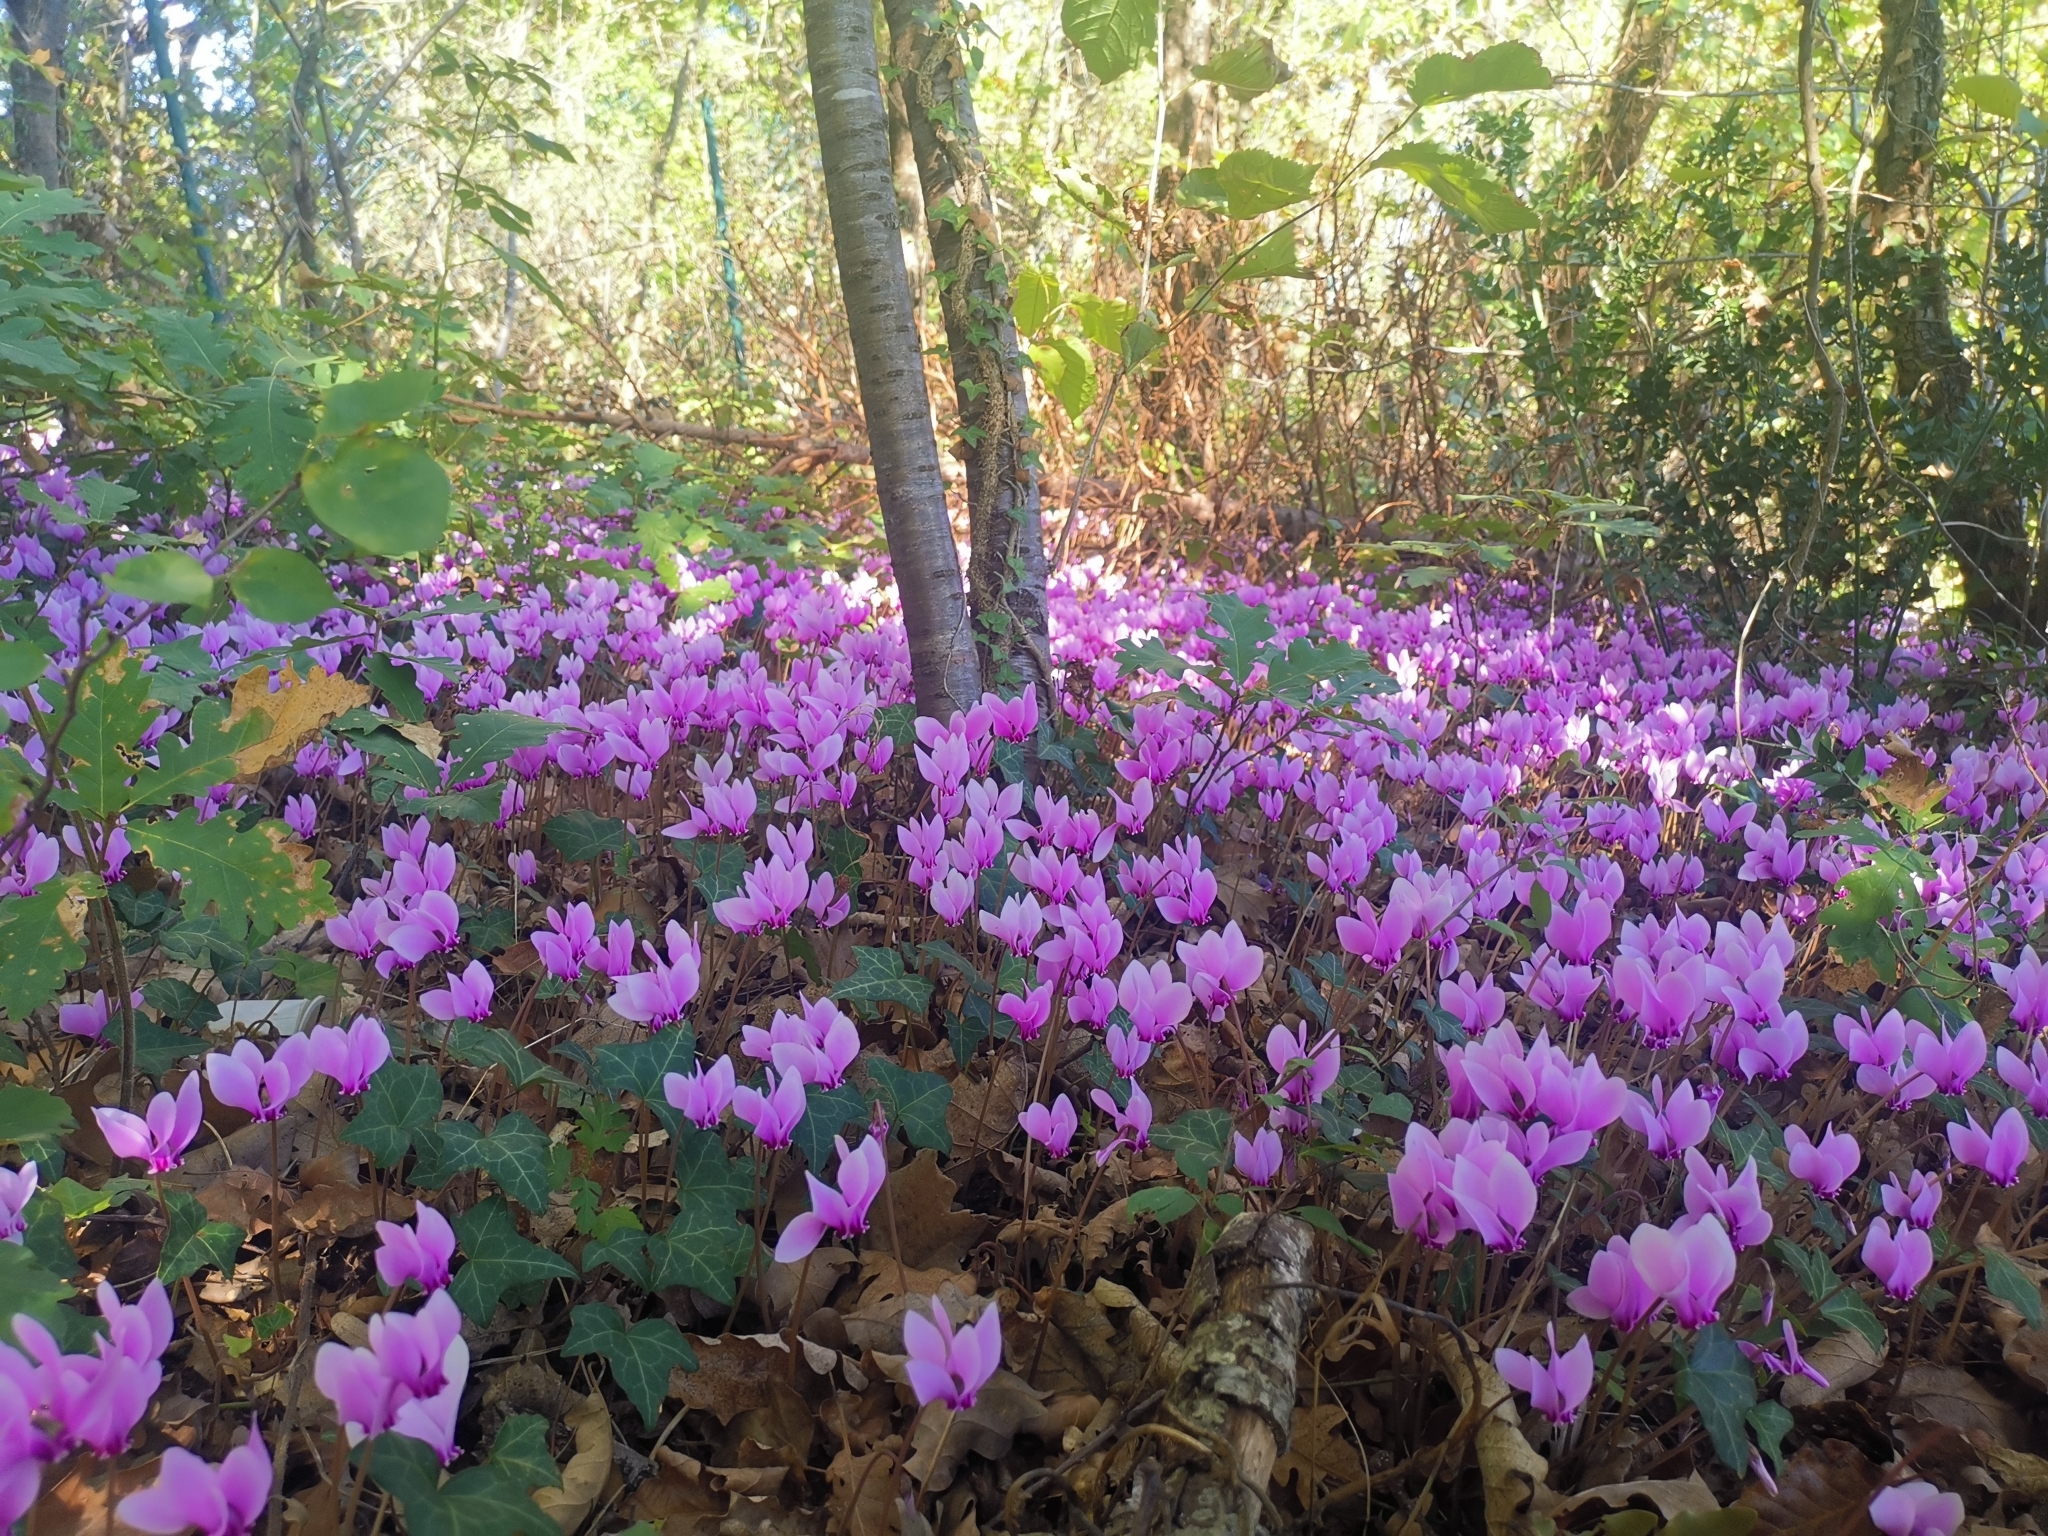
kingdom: Plantae
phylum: Tracheophyta
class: Magnoliopsida
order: Ericales
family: Primulaceae
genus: Cyclamen
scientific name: Cyclamen hederifolium
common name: Sowbread
